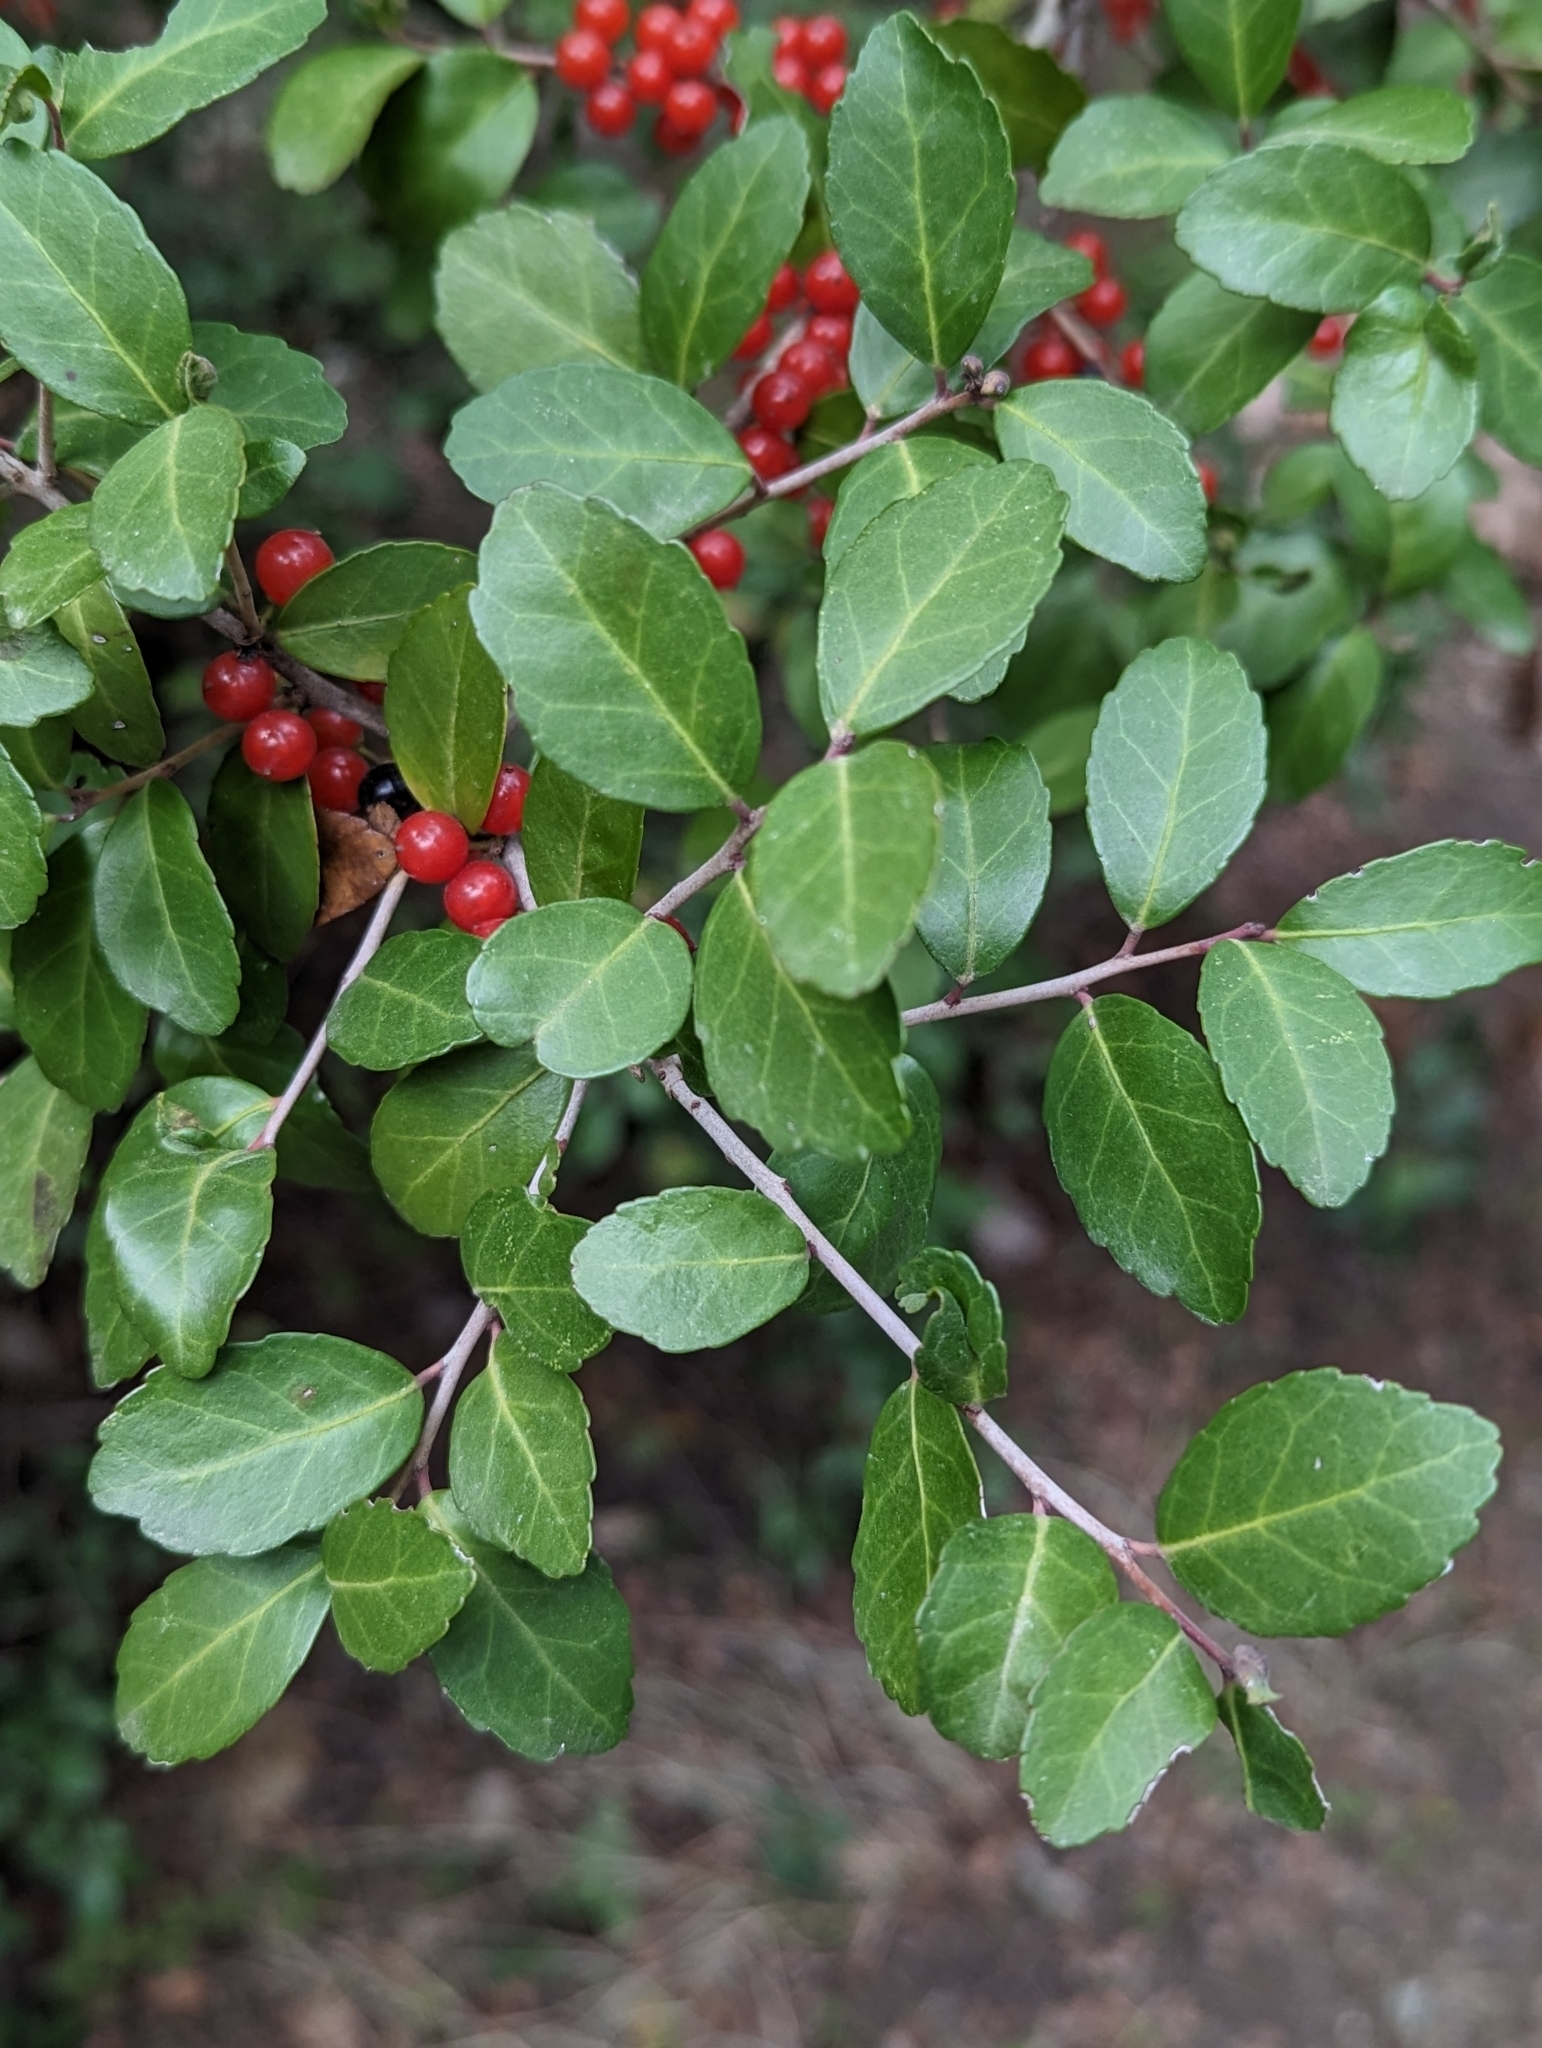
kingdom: Plantae
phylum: Tracheophyta
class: Magnoliopsida
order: Aquifoliales
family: Aquifoliaceae
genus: Ilex
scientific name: Ilex vomitoria
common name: Yaupon holly
